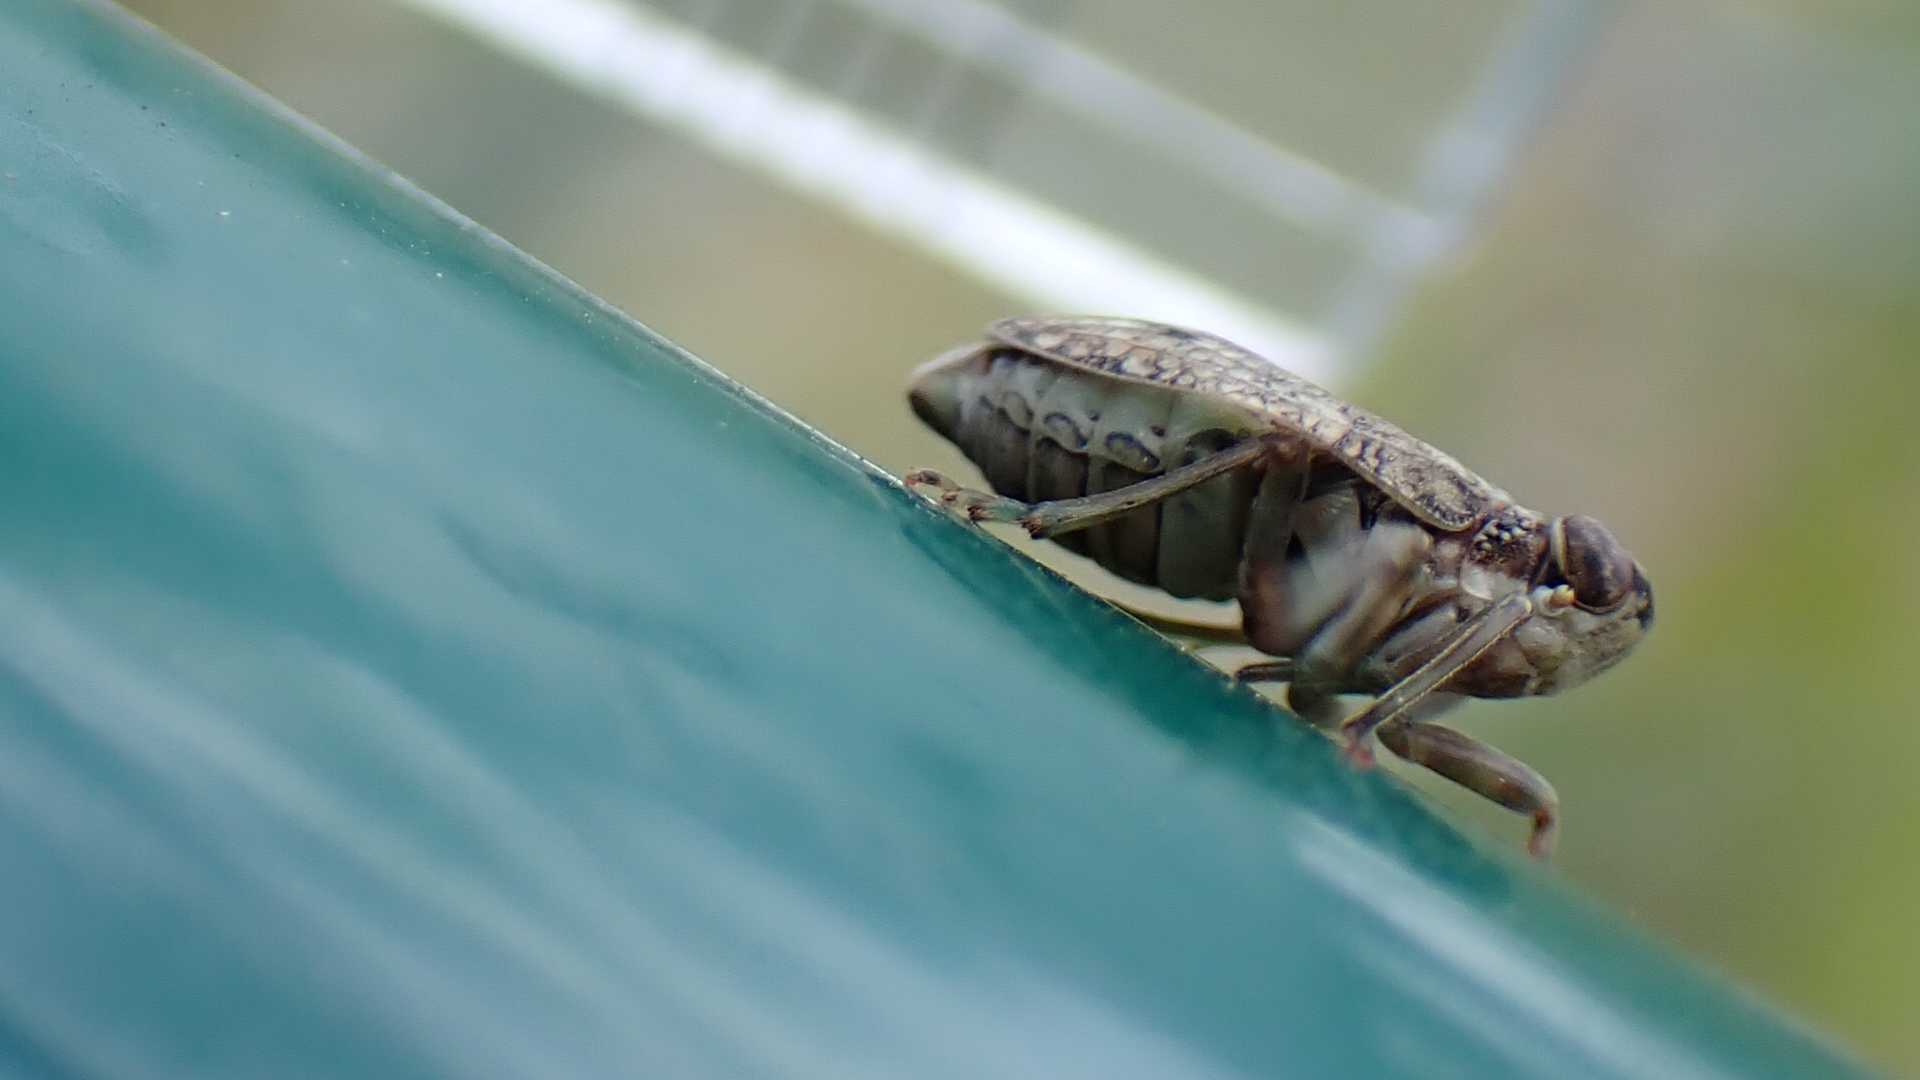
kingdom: Animalia
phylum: Arthropoda
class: Insecta
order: Hemiptera
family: Issidae
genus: Issus
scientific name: Issus coleoptratus
